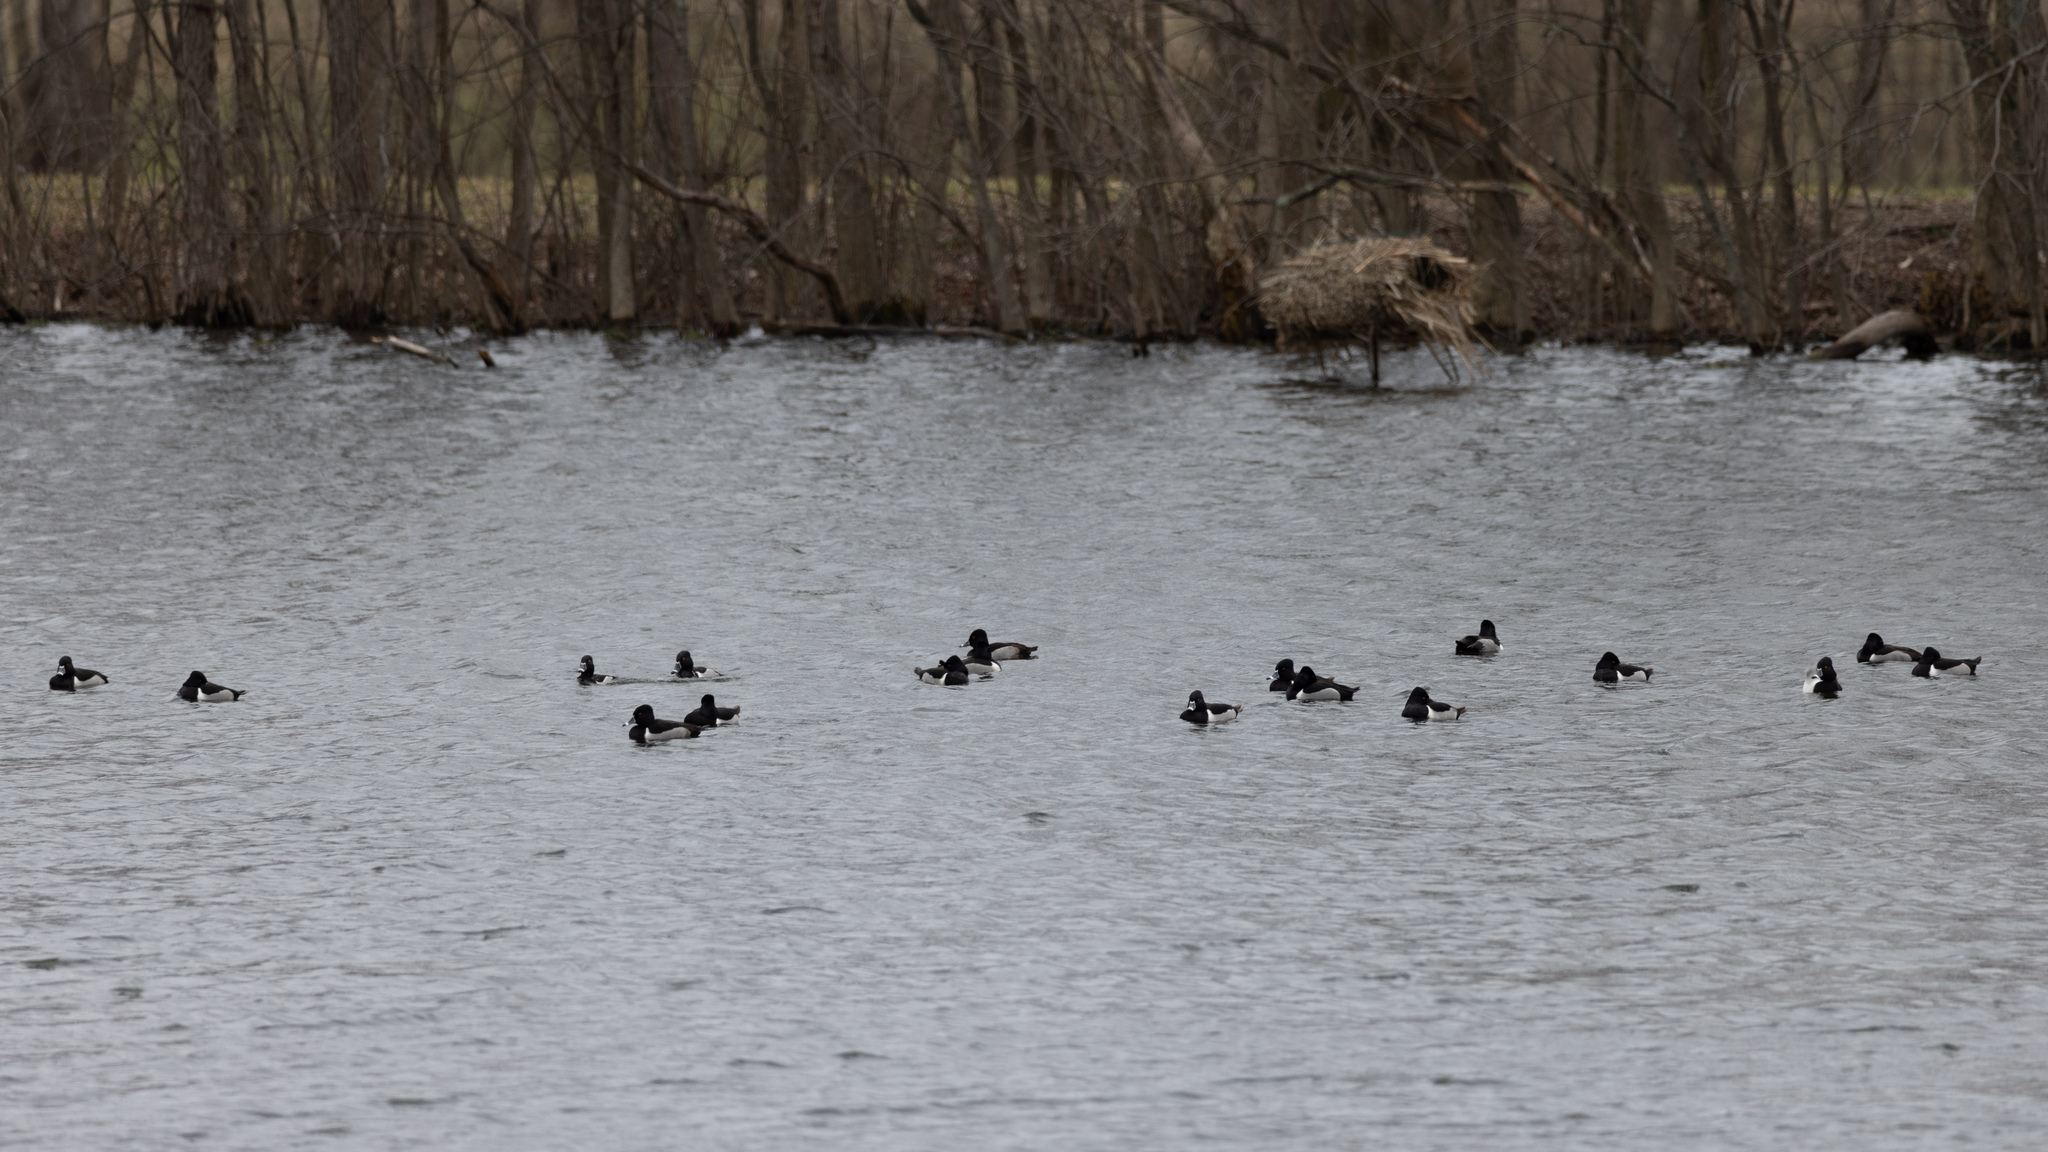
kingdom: Animalia
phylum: Chordata
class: Aves
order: Anseriformes
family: Anatidae
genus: Aythya
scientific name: Aythya collaris
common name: Ring-necked duck
